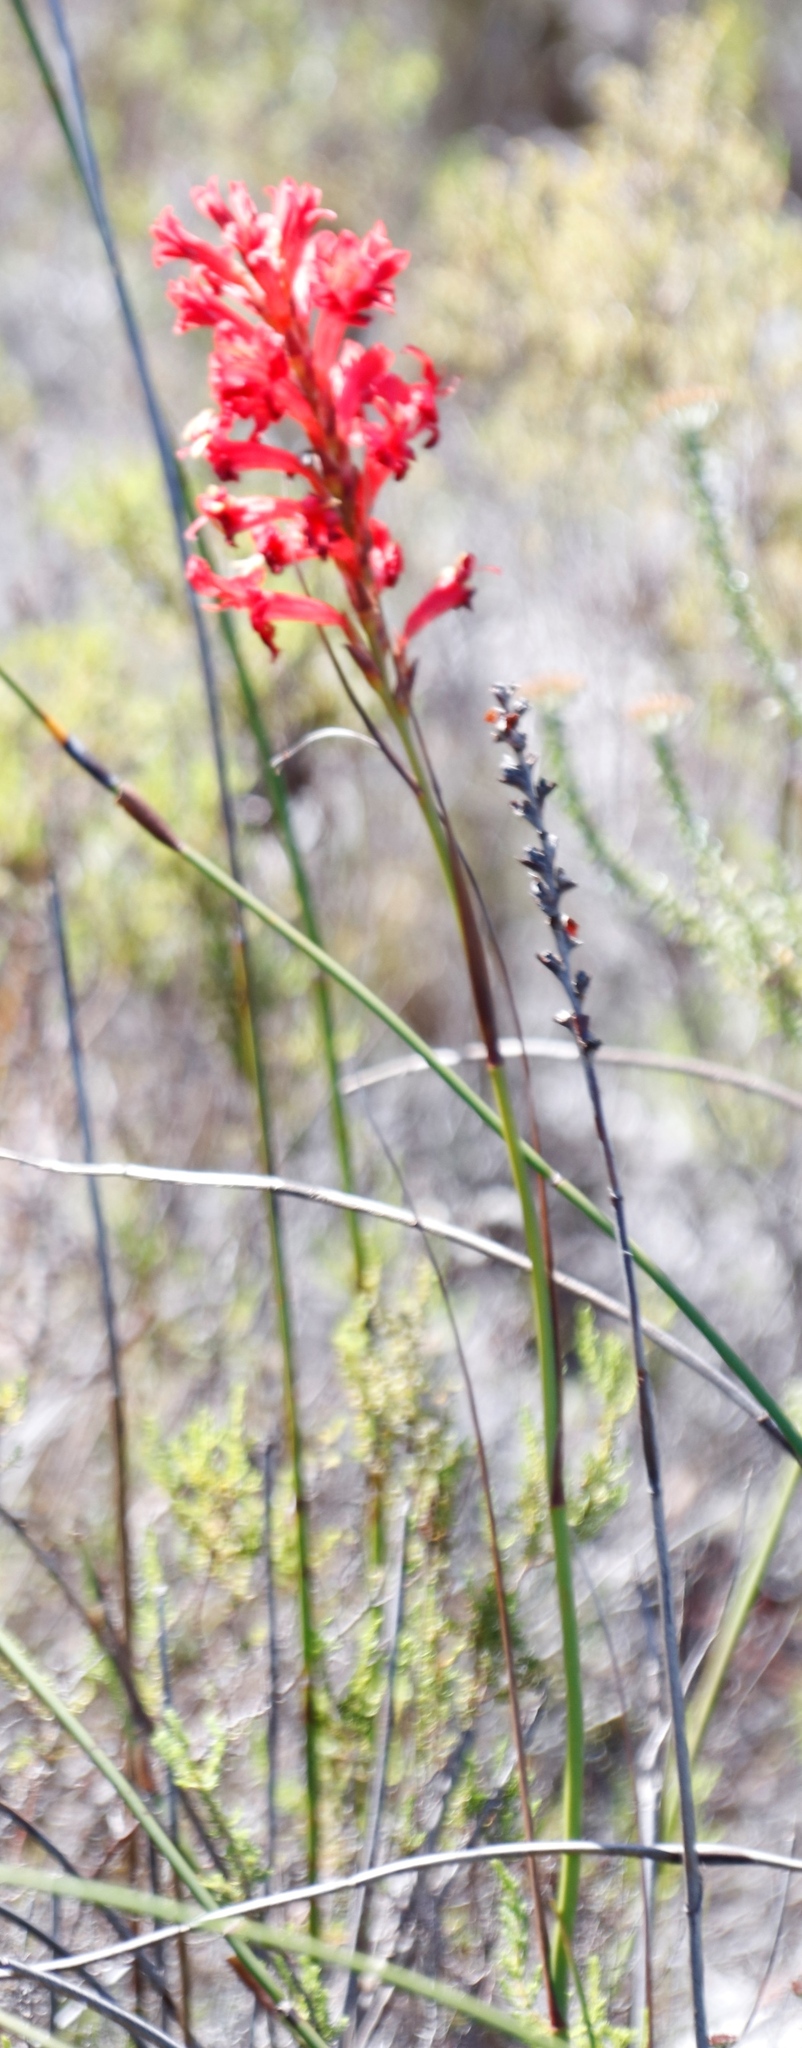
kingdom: Plantae
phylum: Tracheophyta
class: Liliopsida
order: Asparagales
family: Iridaceae
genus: Tritoniopsis
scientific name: Tritoniopsis triticea
